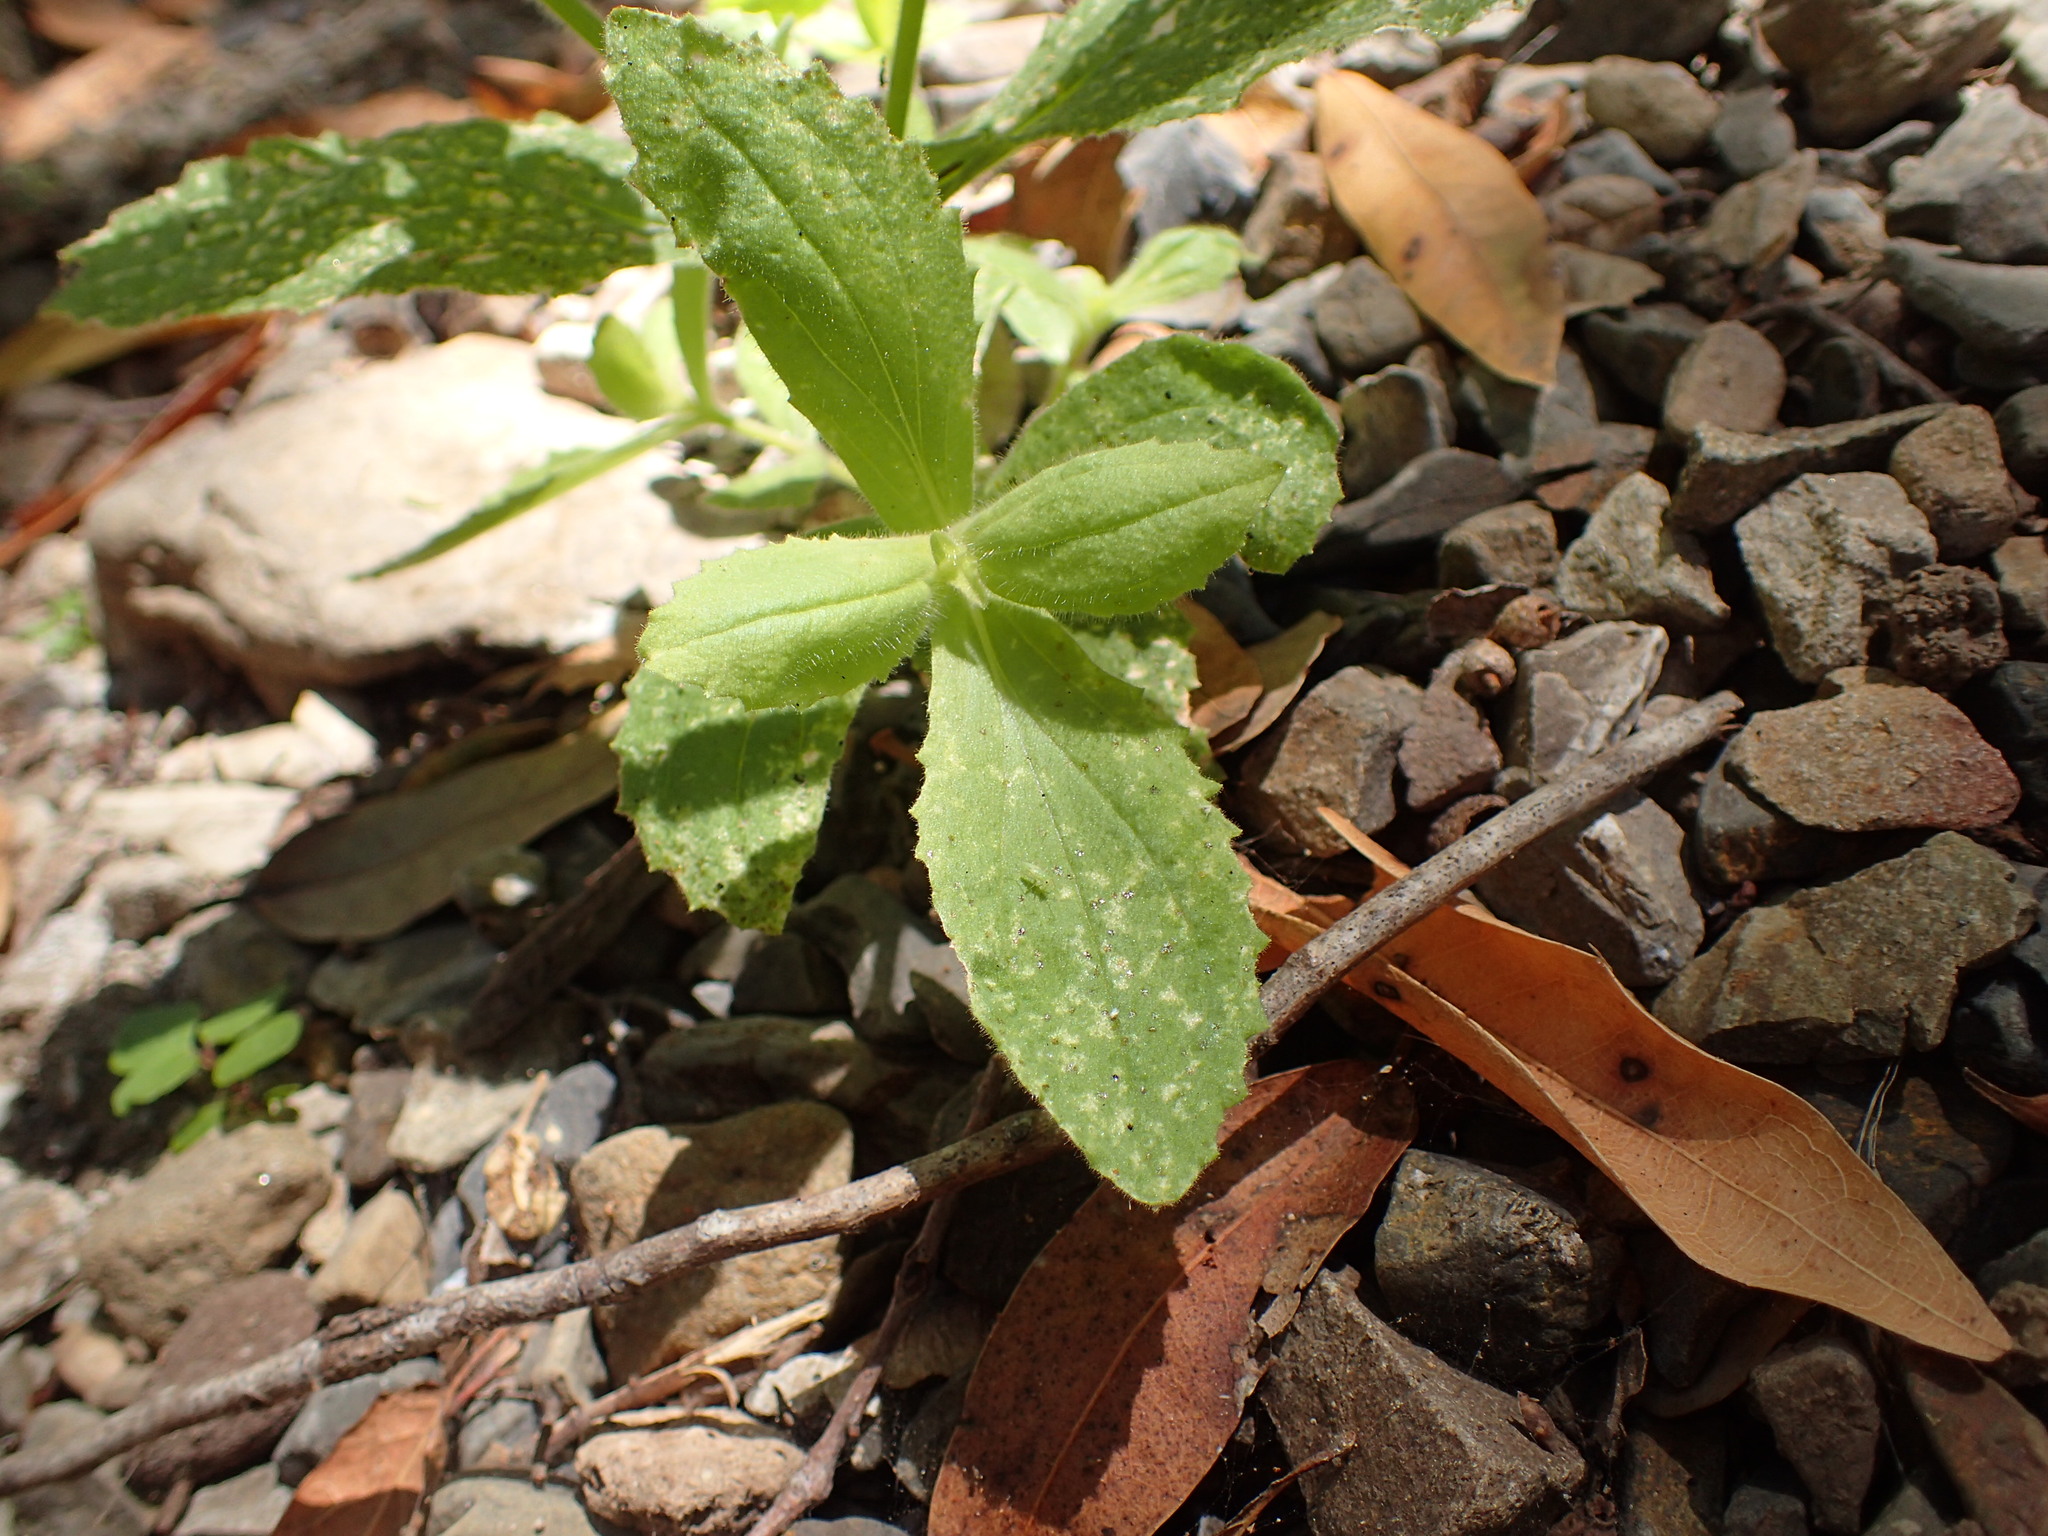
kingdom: Plantae
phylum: Tracheophyta
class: Magnoliopsida
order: Lamiales
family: Phrymaceae
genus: Erythranthe
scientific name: Erythranthe cardinalis
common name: Scarlet monkey-flower
